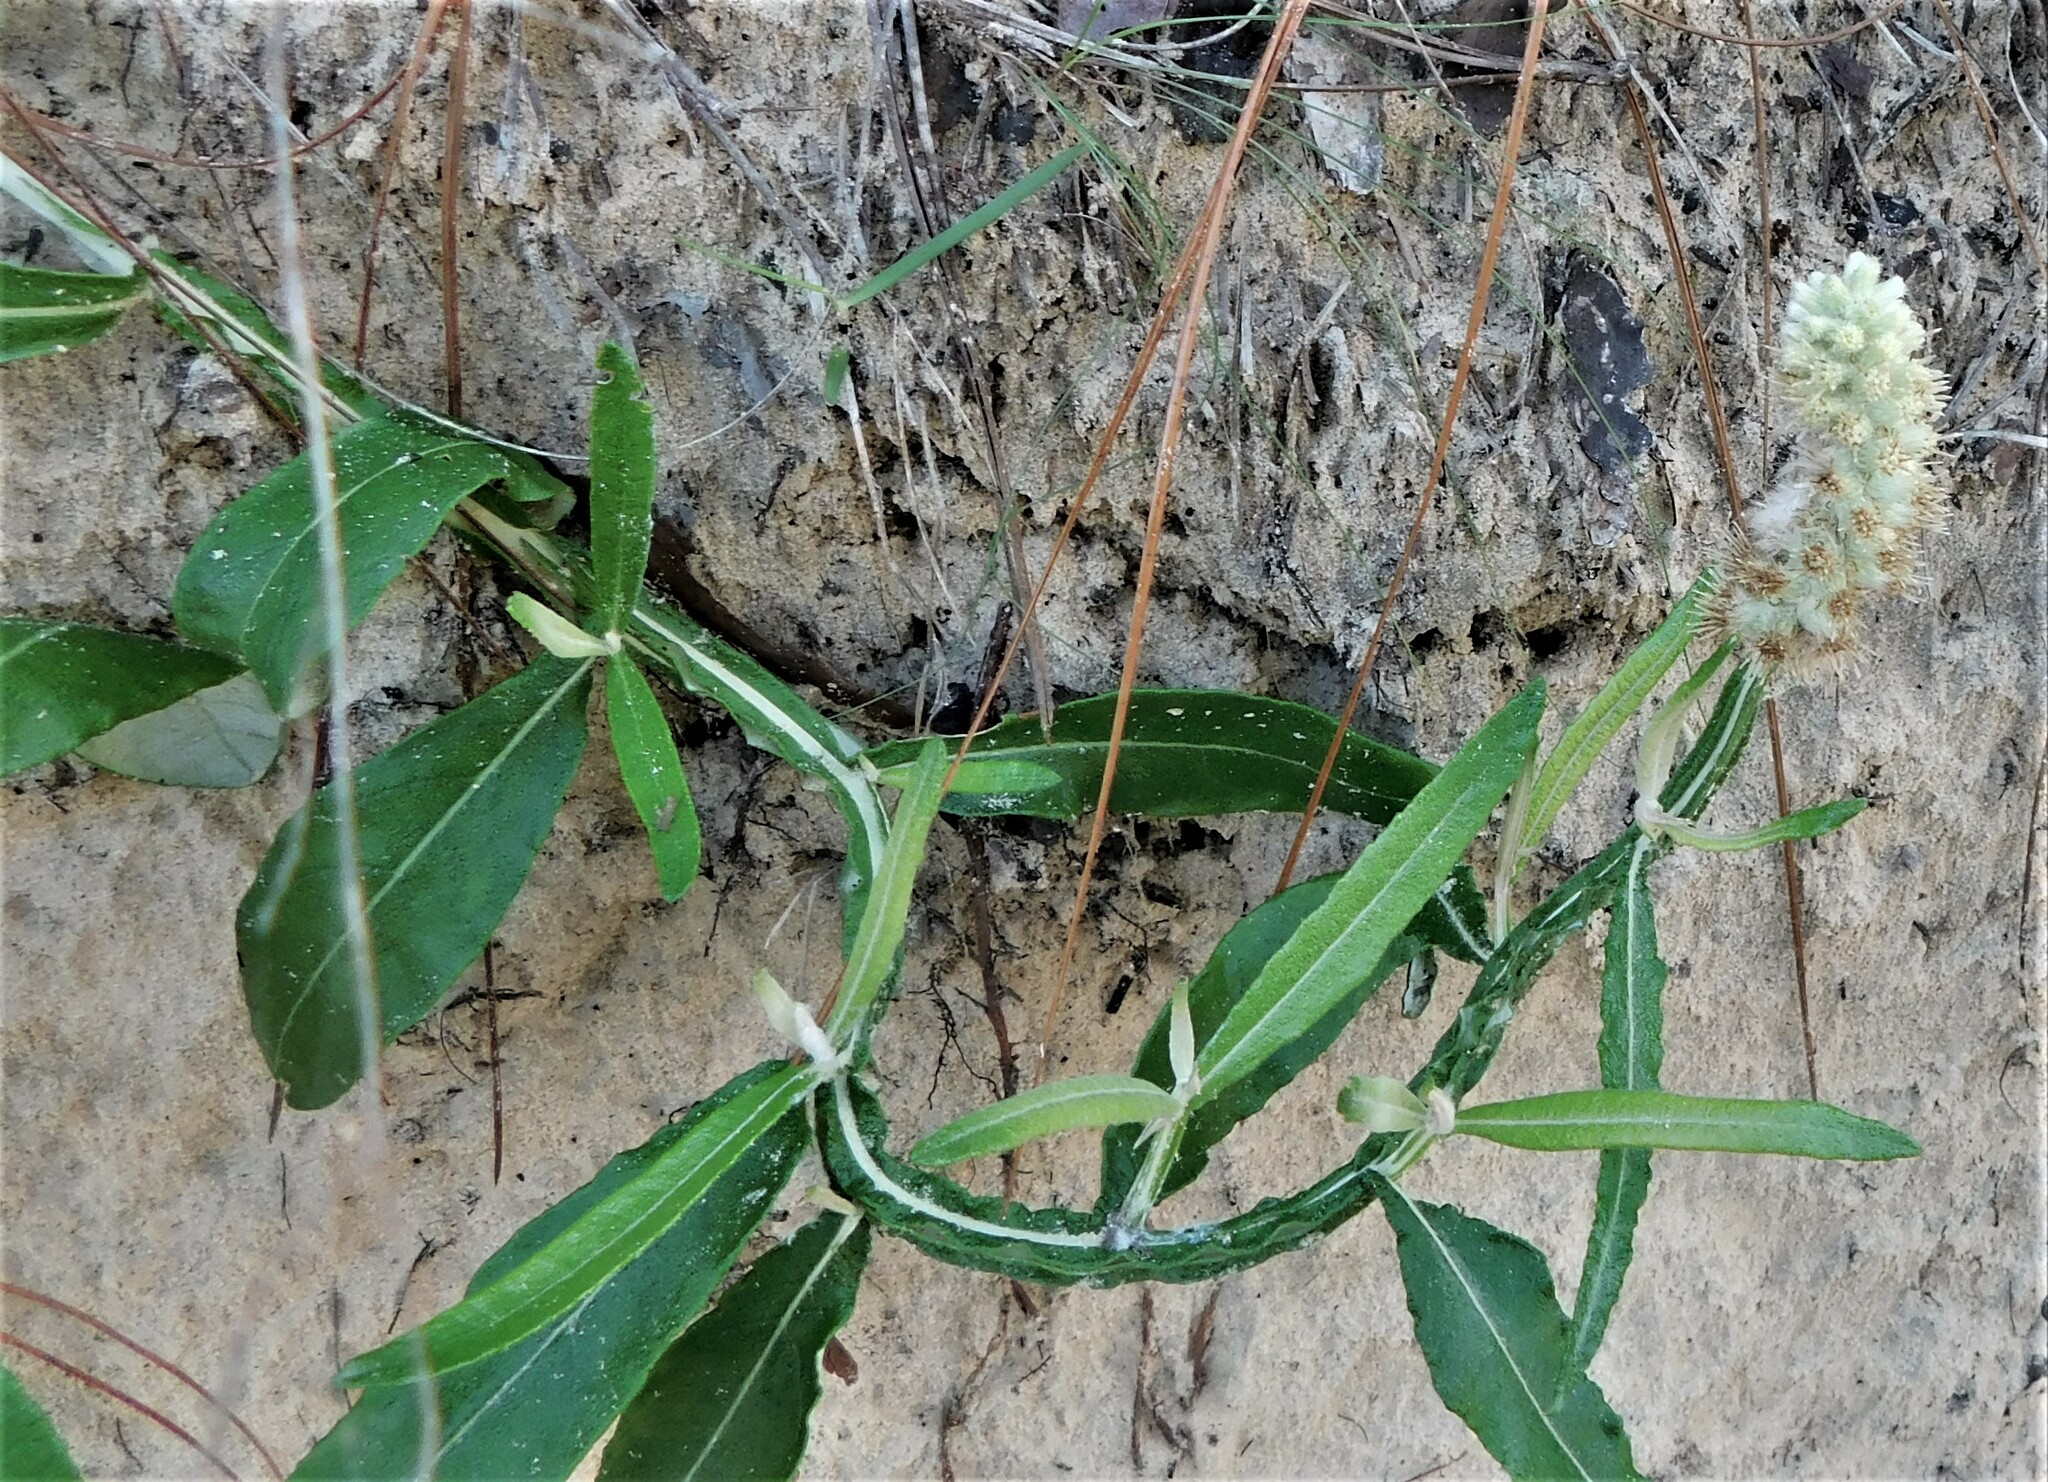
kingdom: Plantae
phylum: Tracheophyta
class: Magnoliopsida
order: Asterales
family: Asteraceae
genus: Pterocaulon
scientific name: Pterocaulon pycnostachyum
